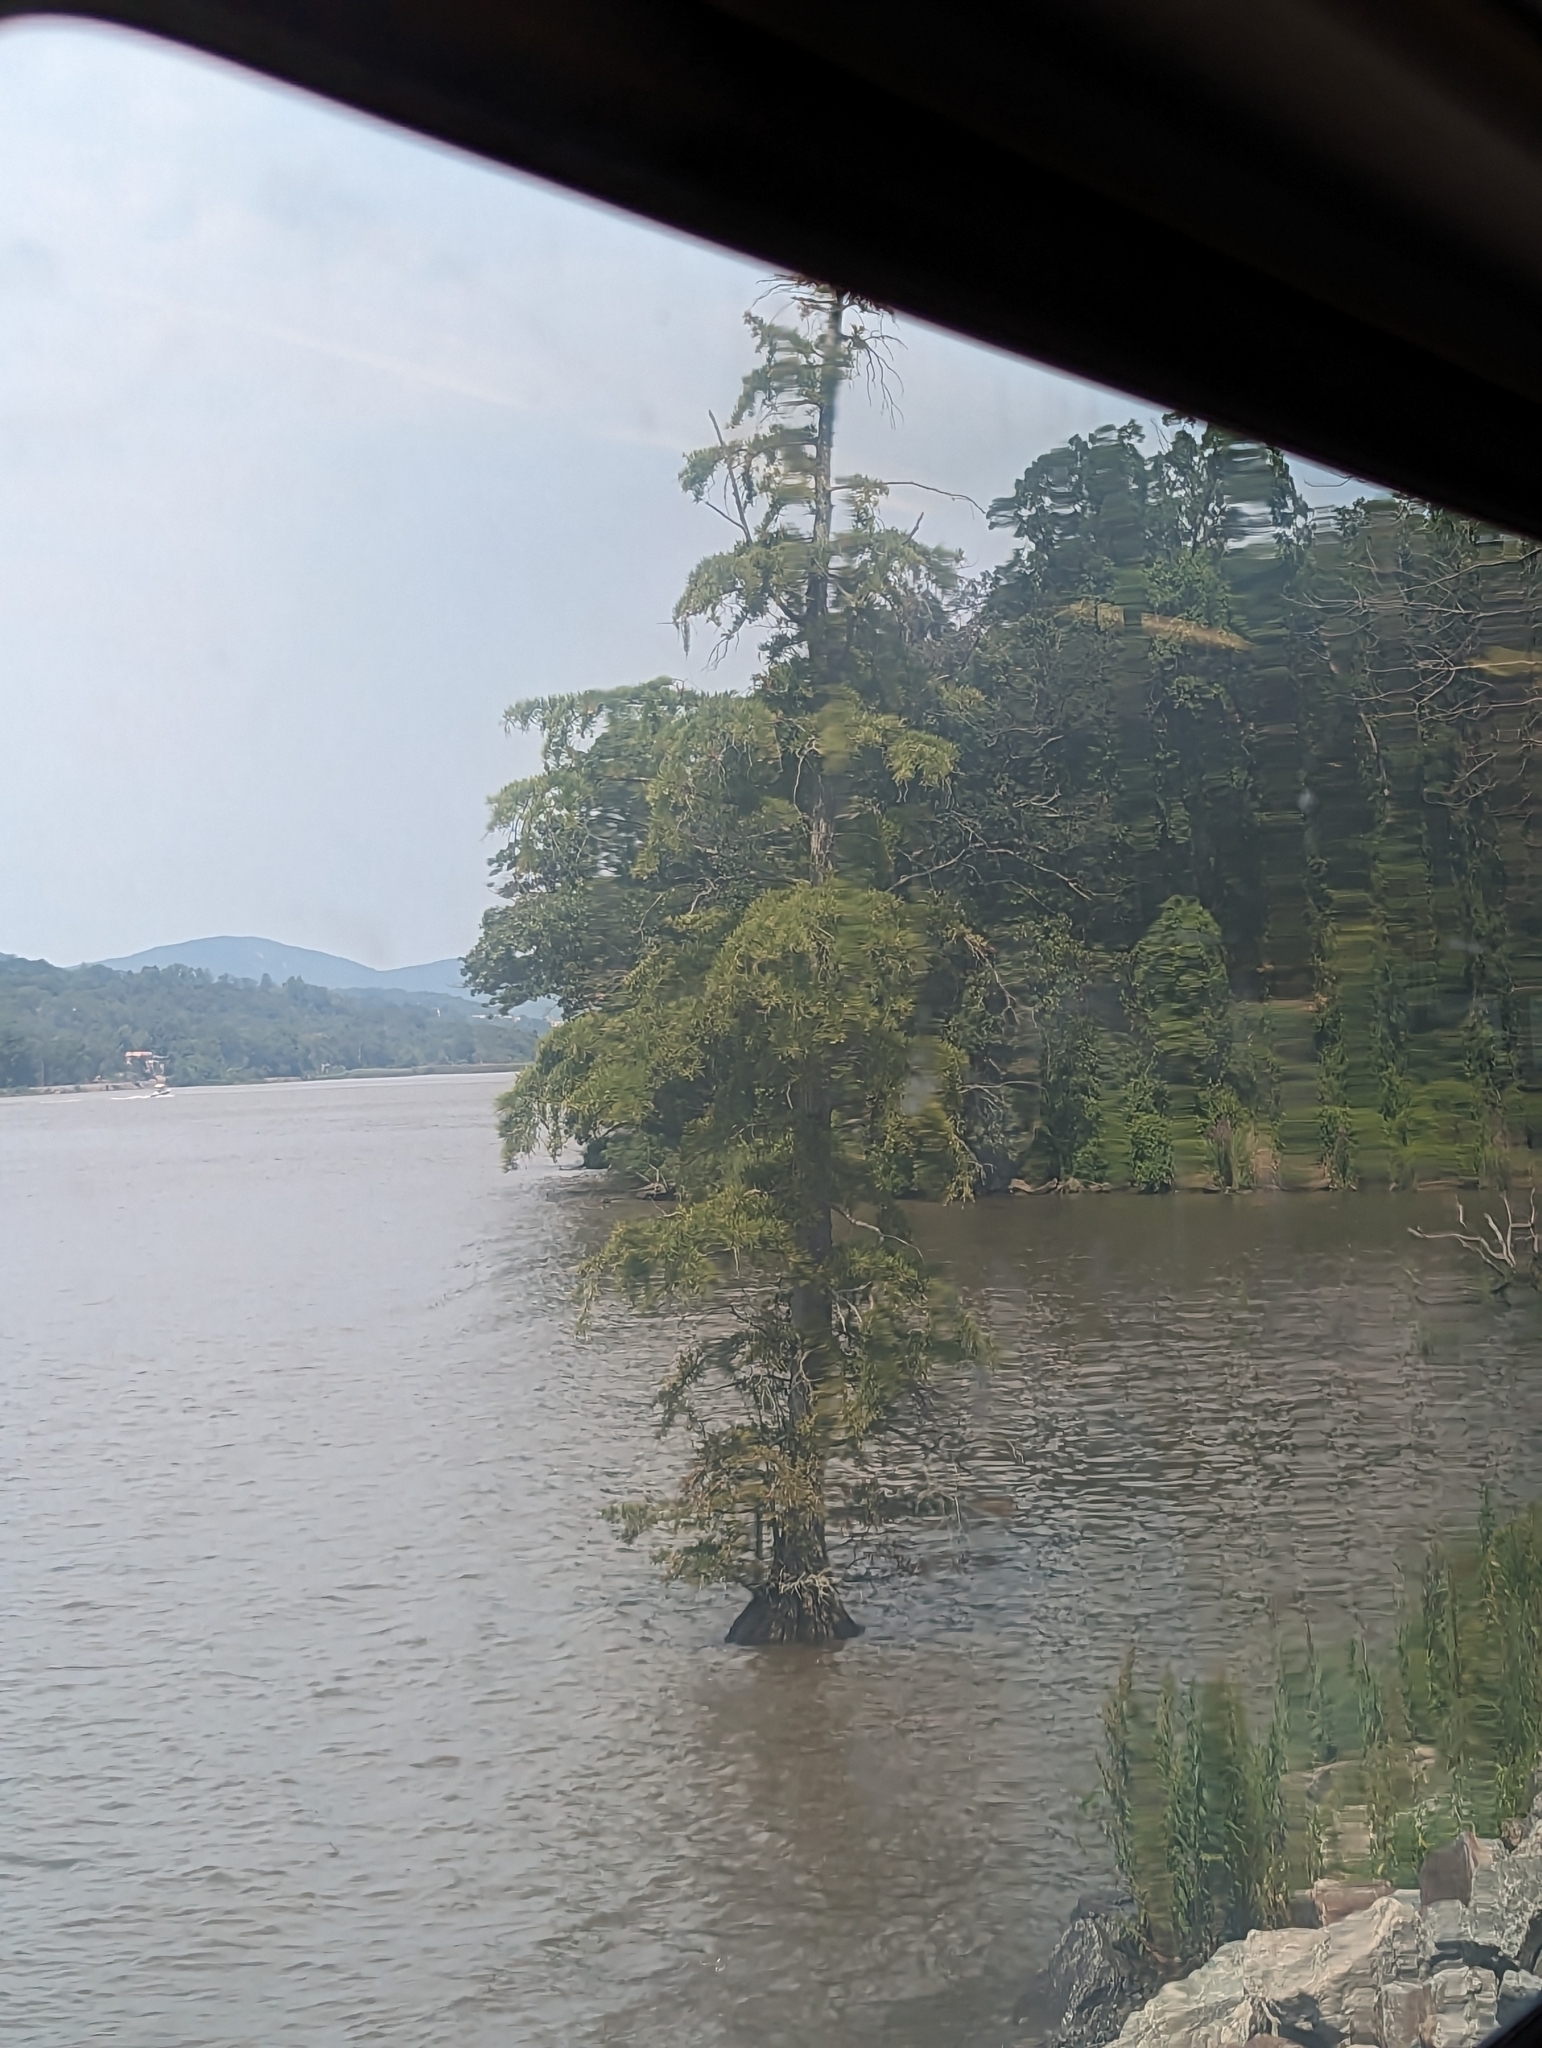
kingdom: Plantae
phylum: Tracheophyta
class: Pinopsida
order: Pinales
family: Cupressaceae
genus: Taxodium
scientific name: Taxodium distichum
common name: Bald cypress
